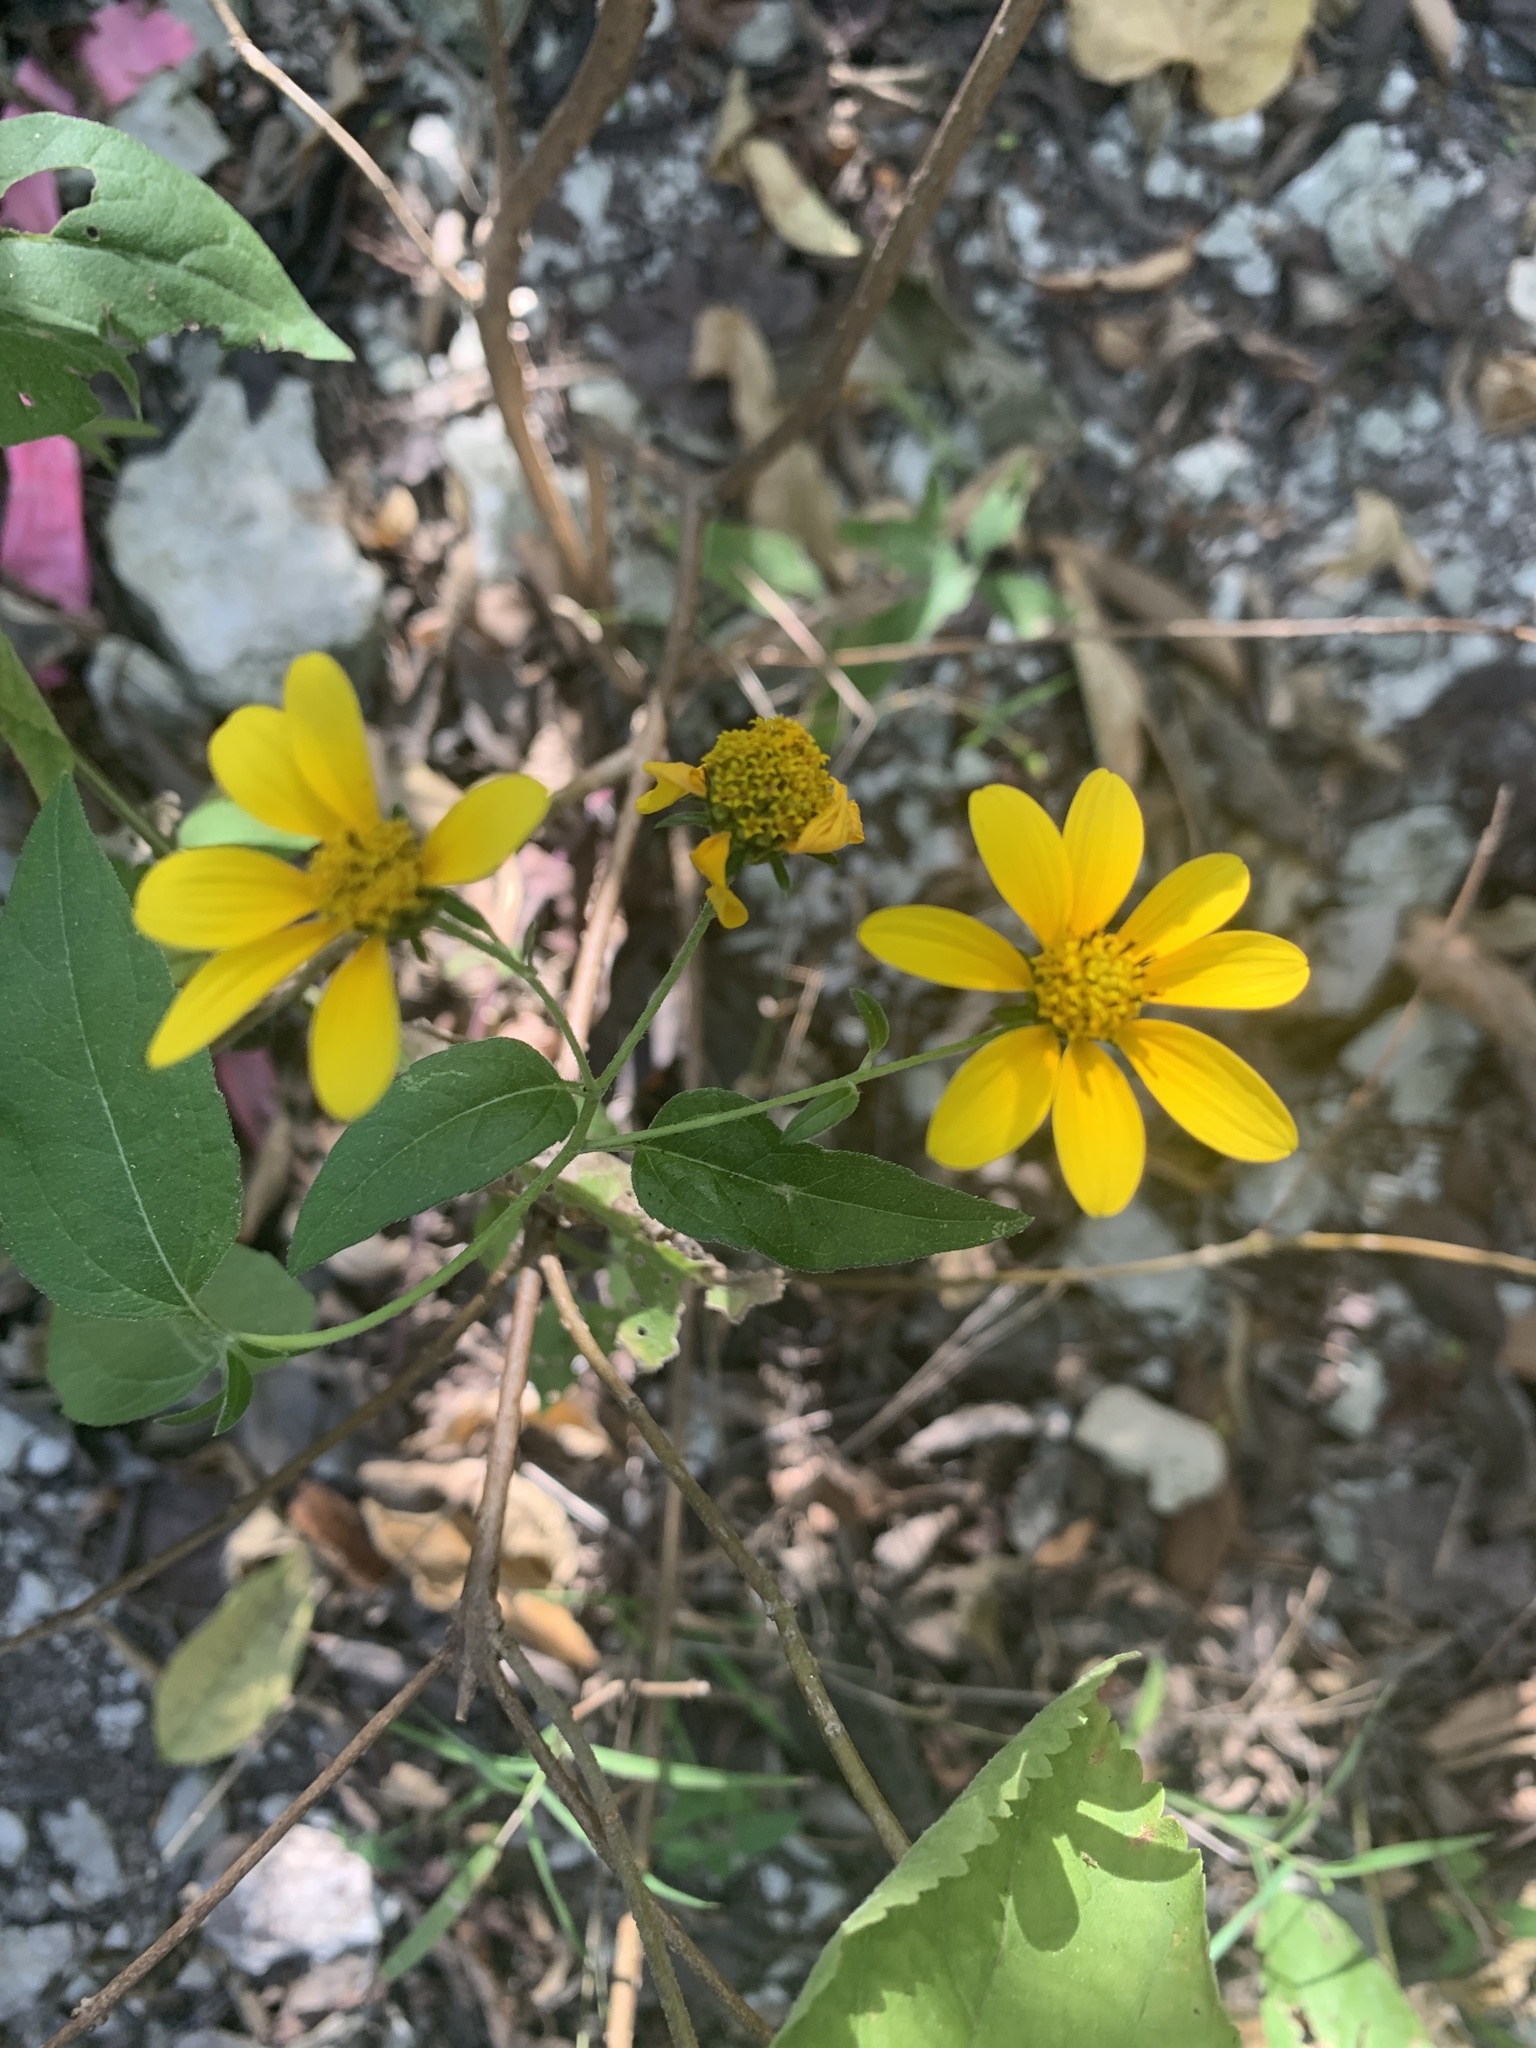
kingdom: Plantae
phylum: Tracheophyta
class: Magnoliopsida
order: Asterales
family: Asteraceae
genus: Viguiera
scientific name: Viguiera dentata
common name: Toothleaf
